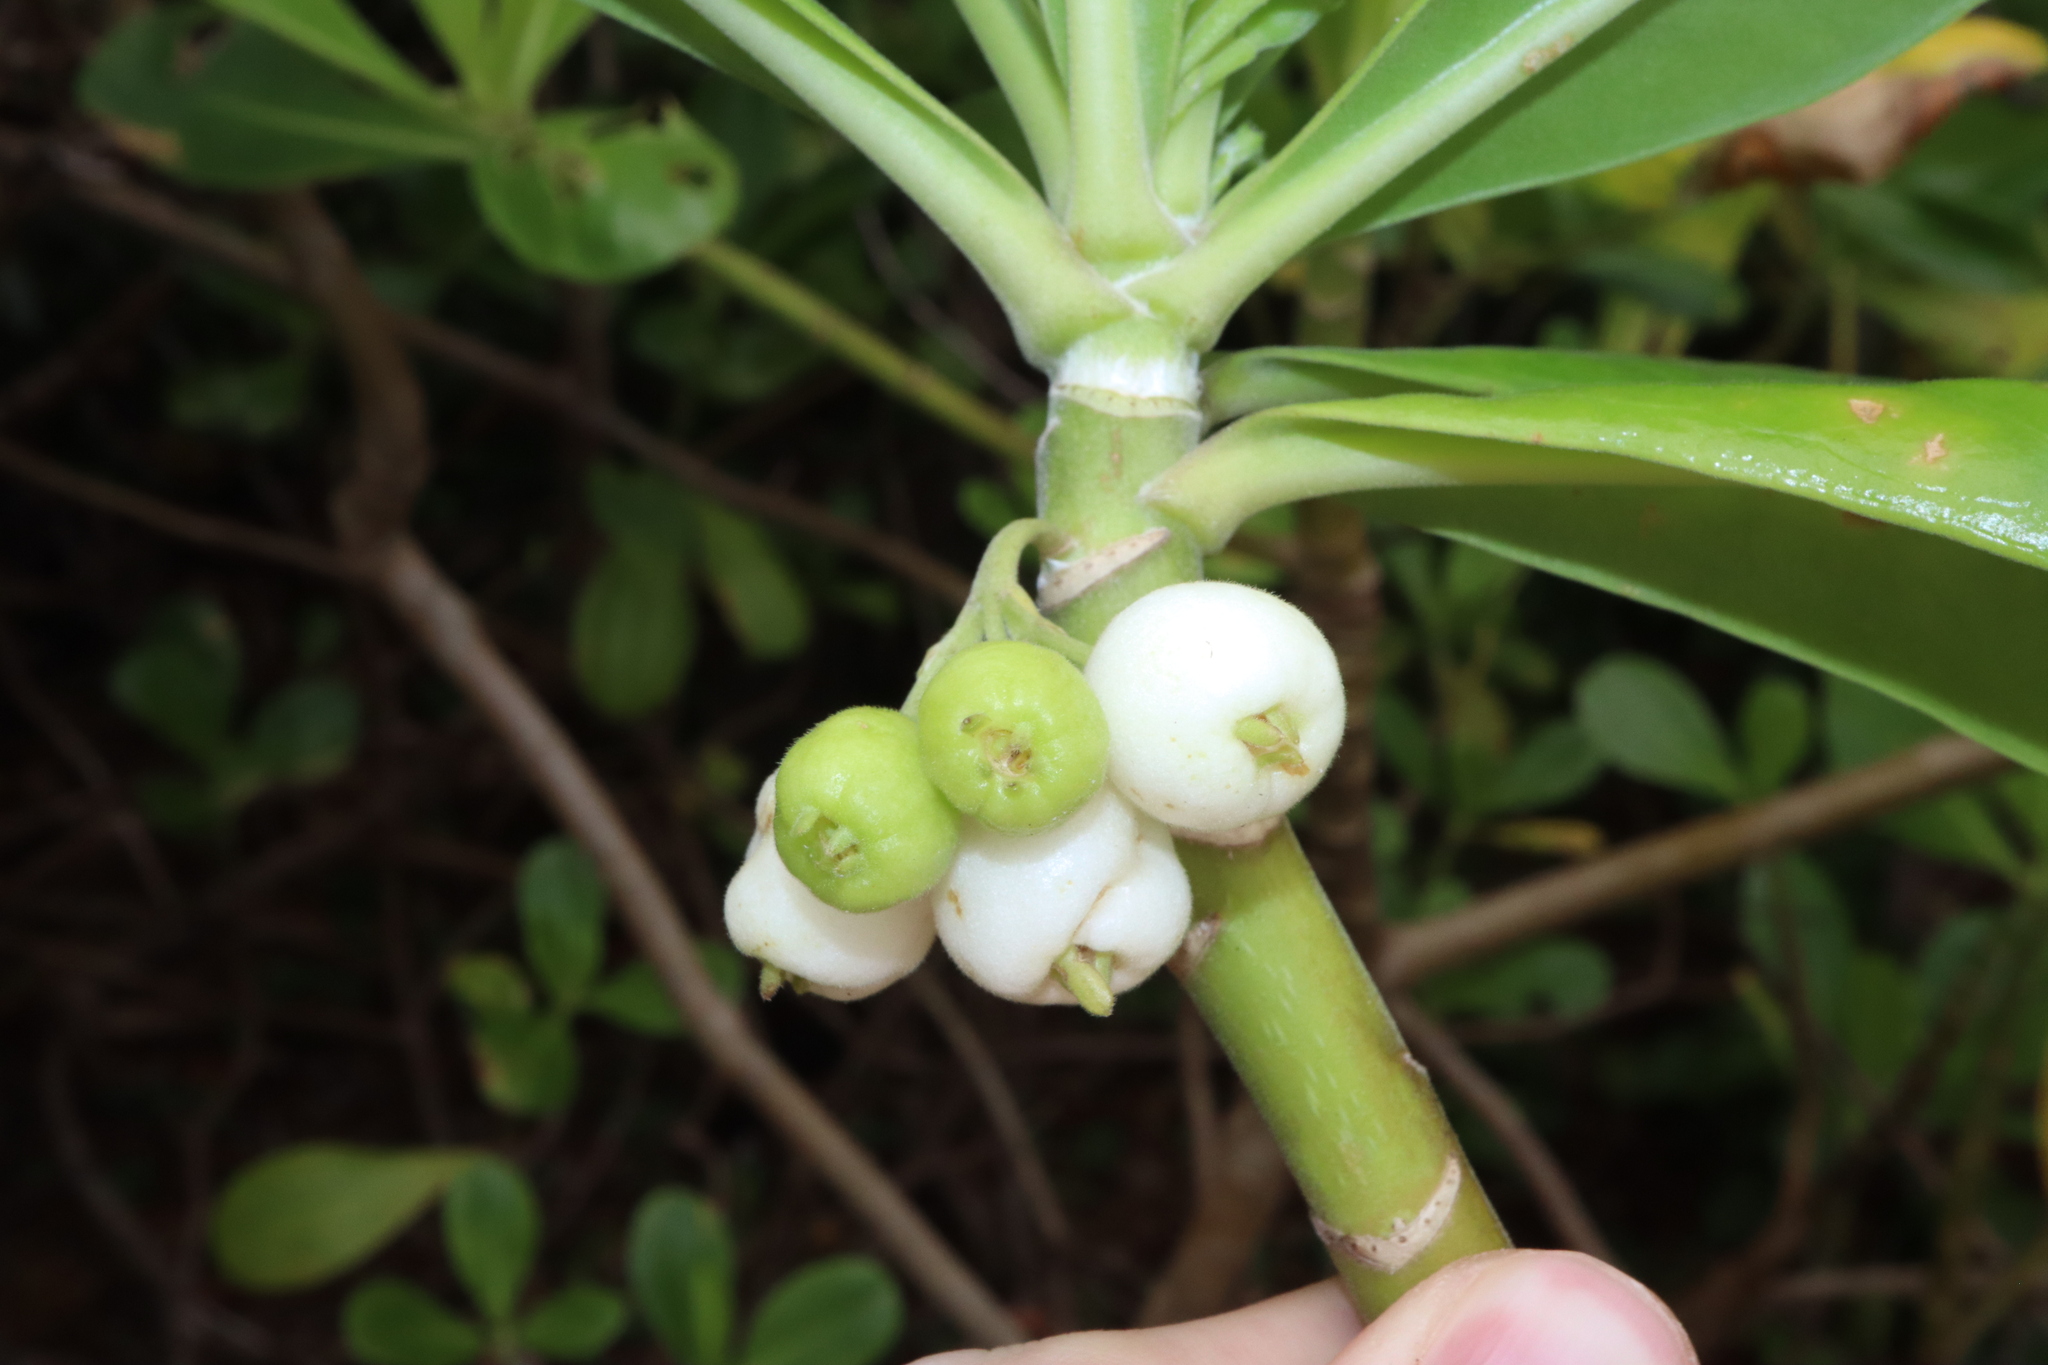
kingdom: Plantae
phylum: Tracheophyta
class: Magnoliopsida
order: Asterales
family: Goodeniaceae
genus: Scaevola
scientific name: Scaevola taccada
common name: Sea lettucetree
